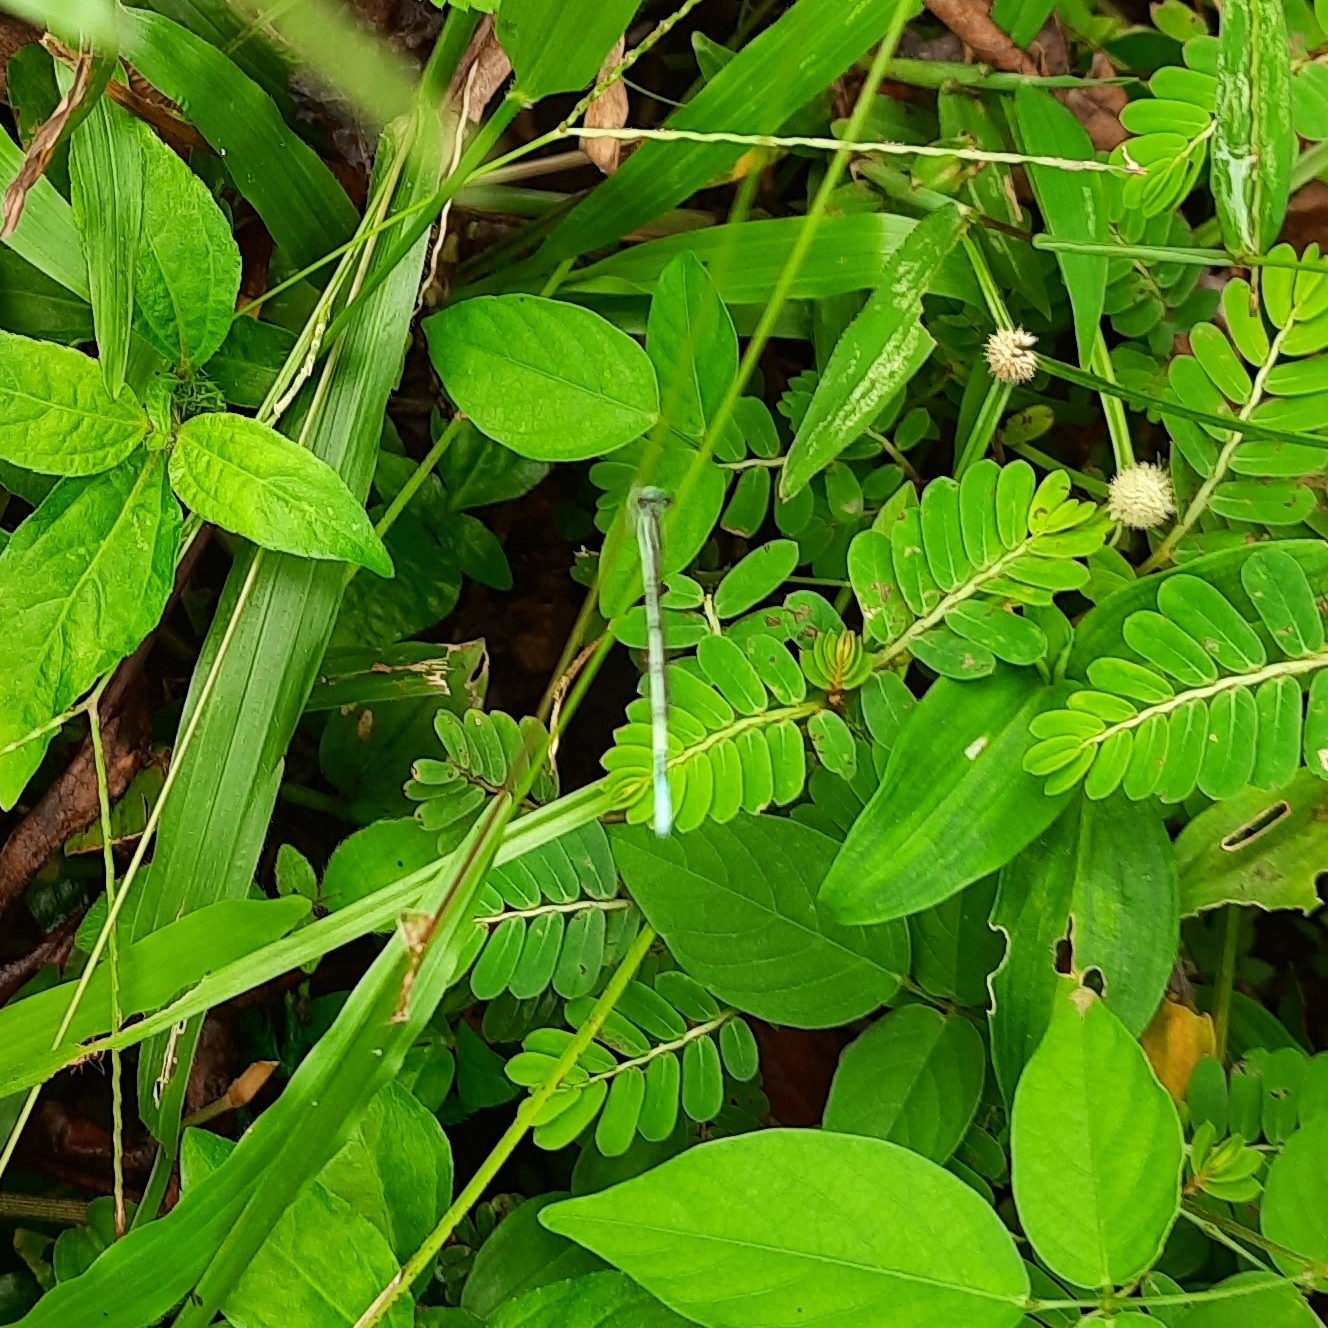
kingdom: Animalia
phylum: Arthropoda
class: Insecta
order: Odonata
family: Coenagrionidae
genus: Agriocnemis
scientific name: Agriocnemis pieris
